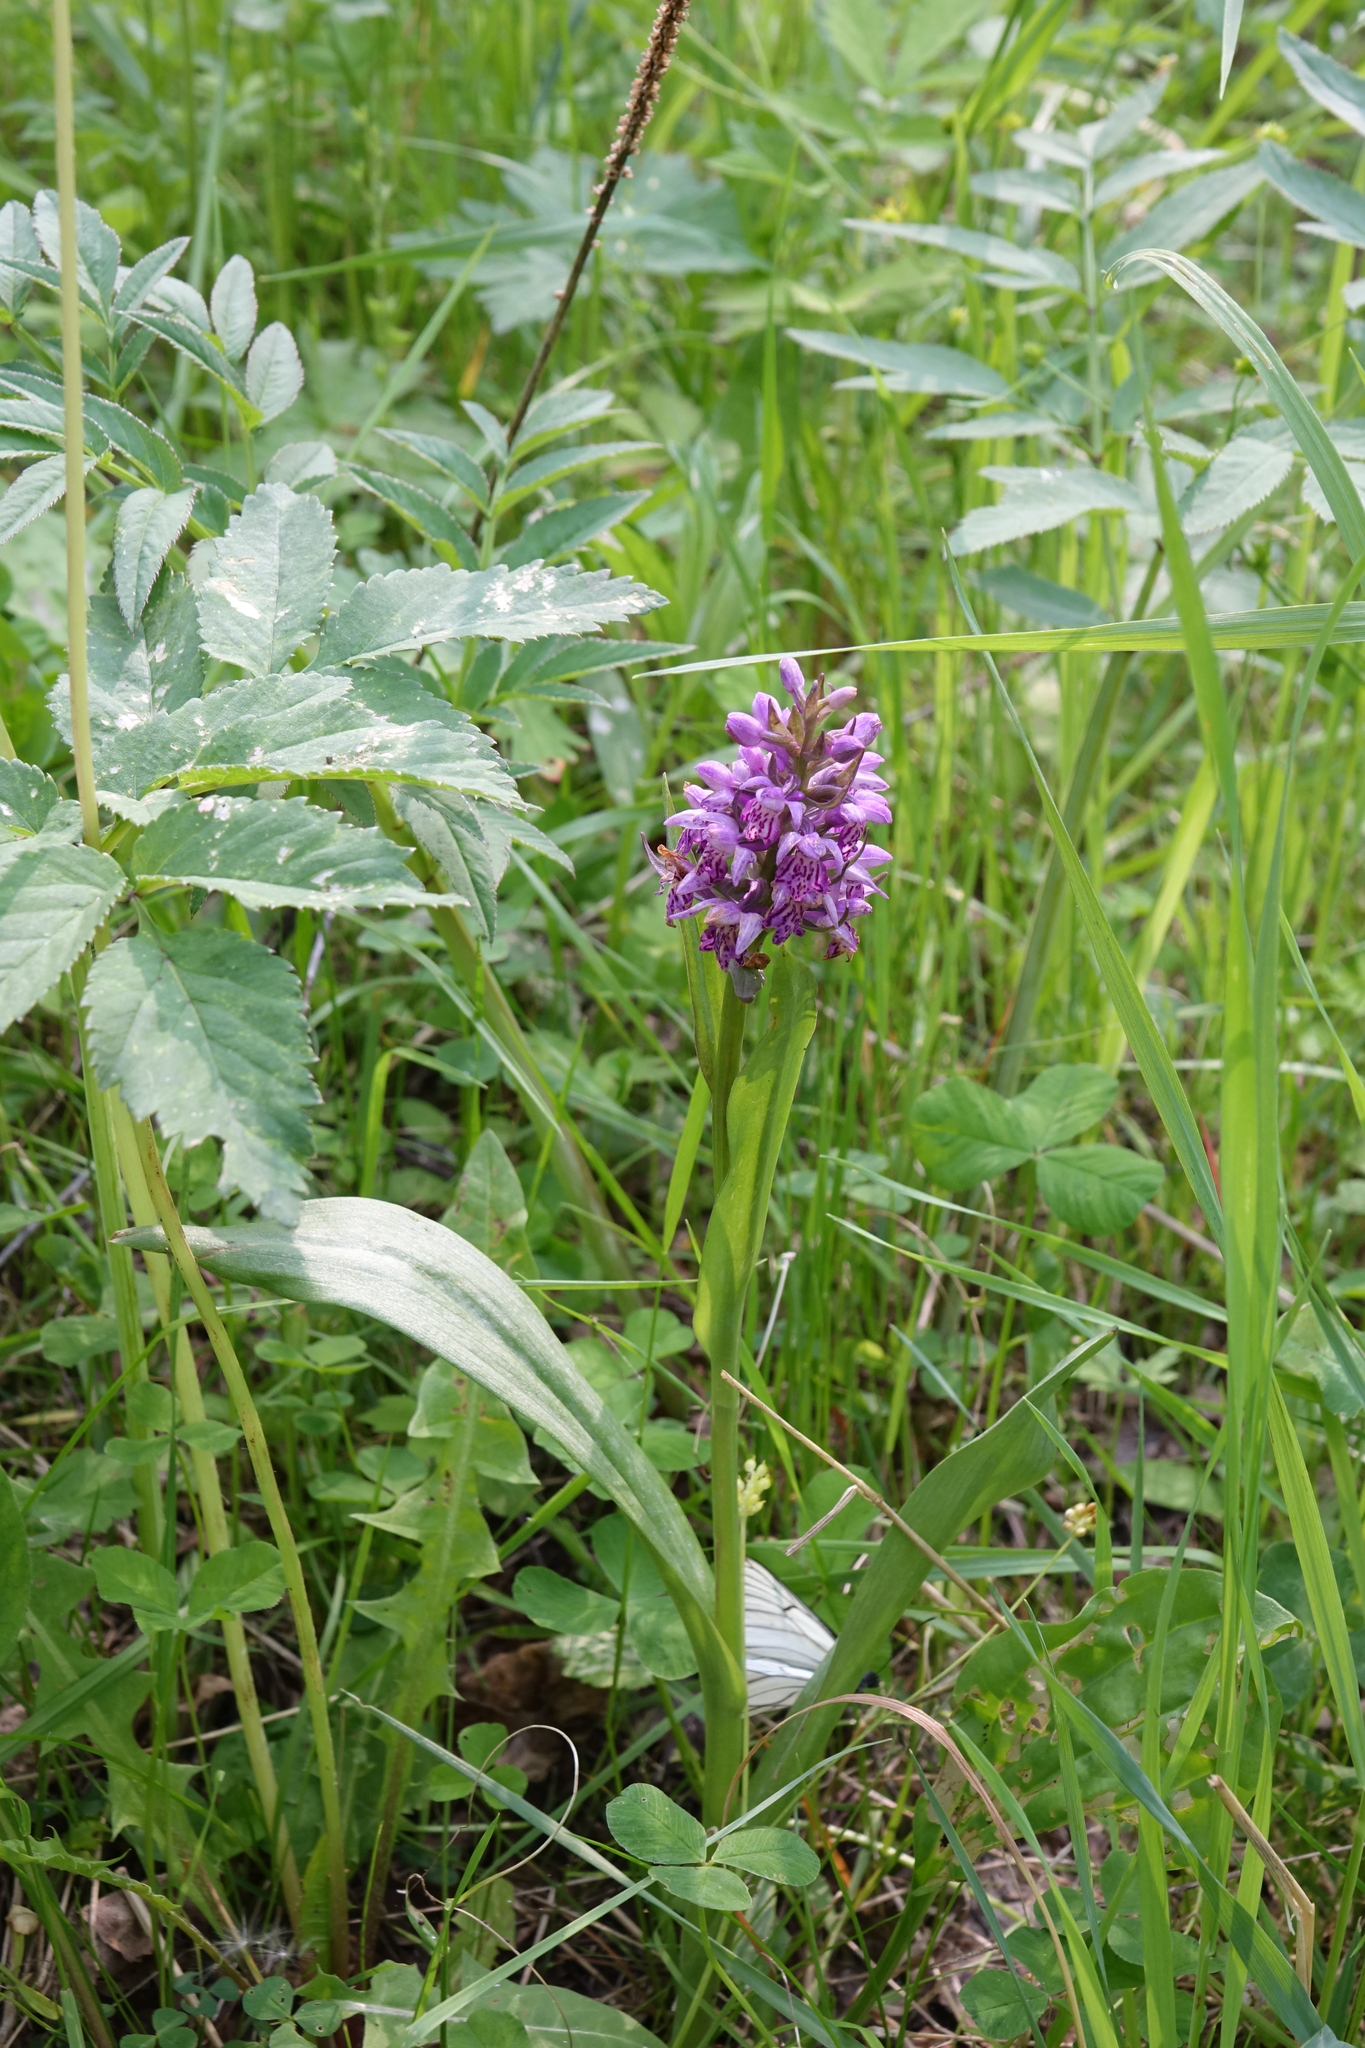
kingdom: Plantae
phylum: Tracheophyta
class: Liliopsida
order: Asparagales
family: Orchidaceae
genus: Dactylorhiza
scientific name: Dactylorhiza sibirica
